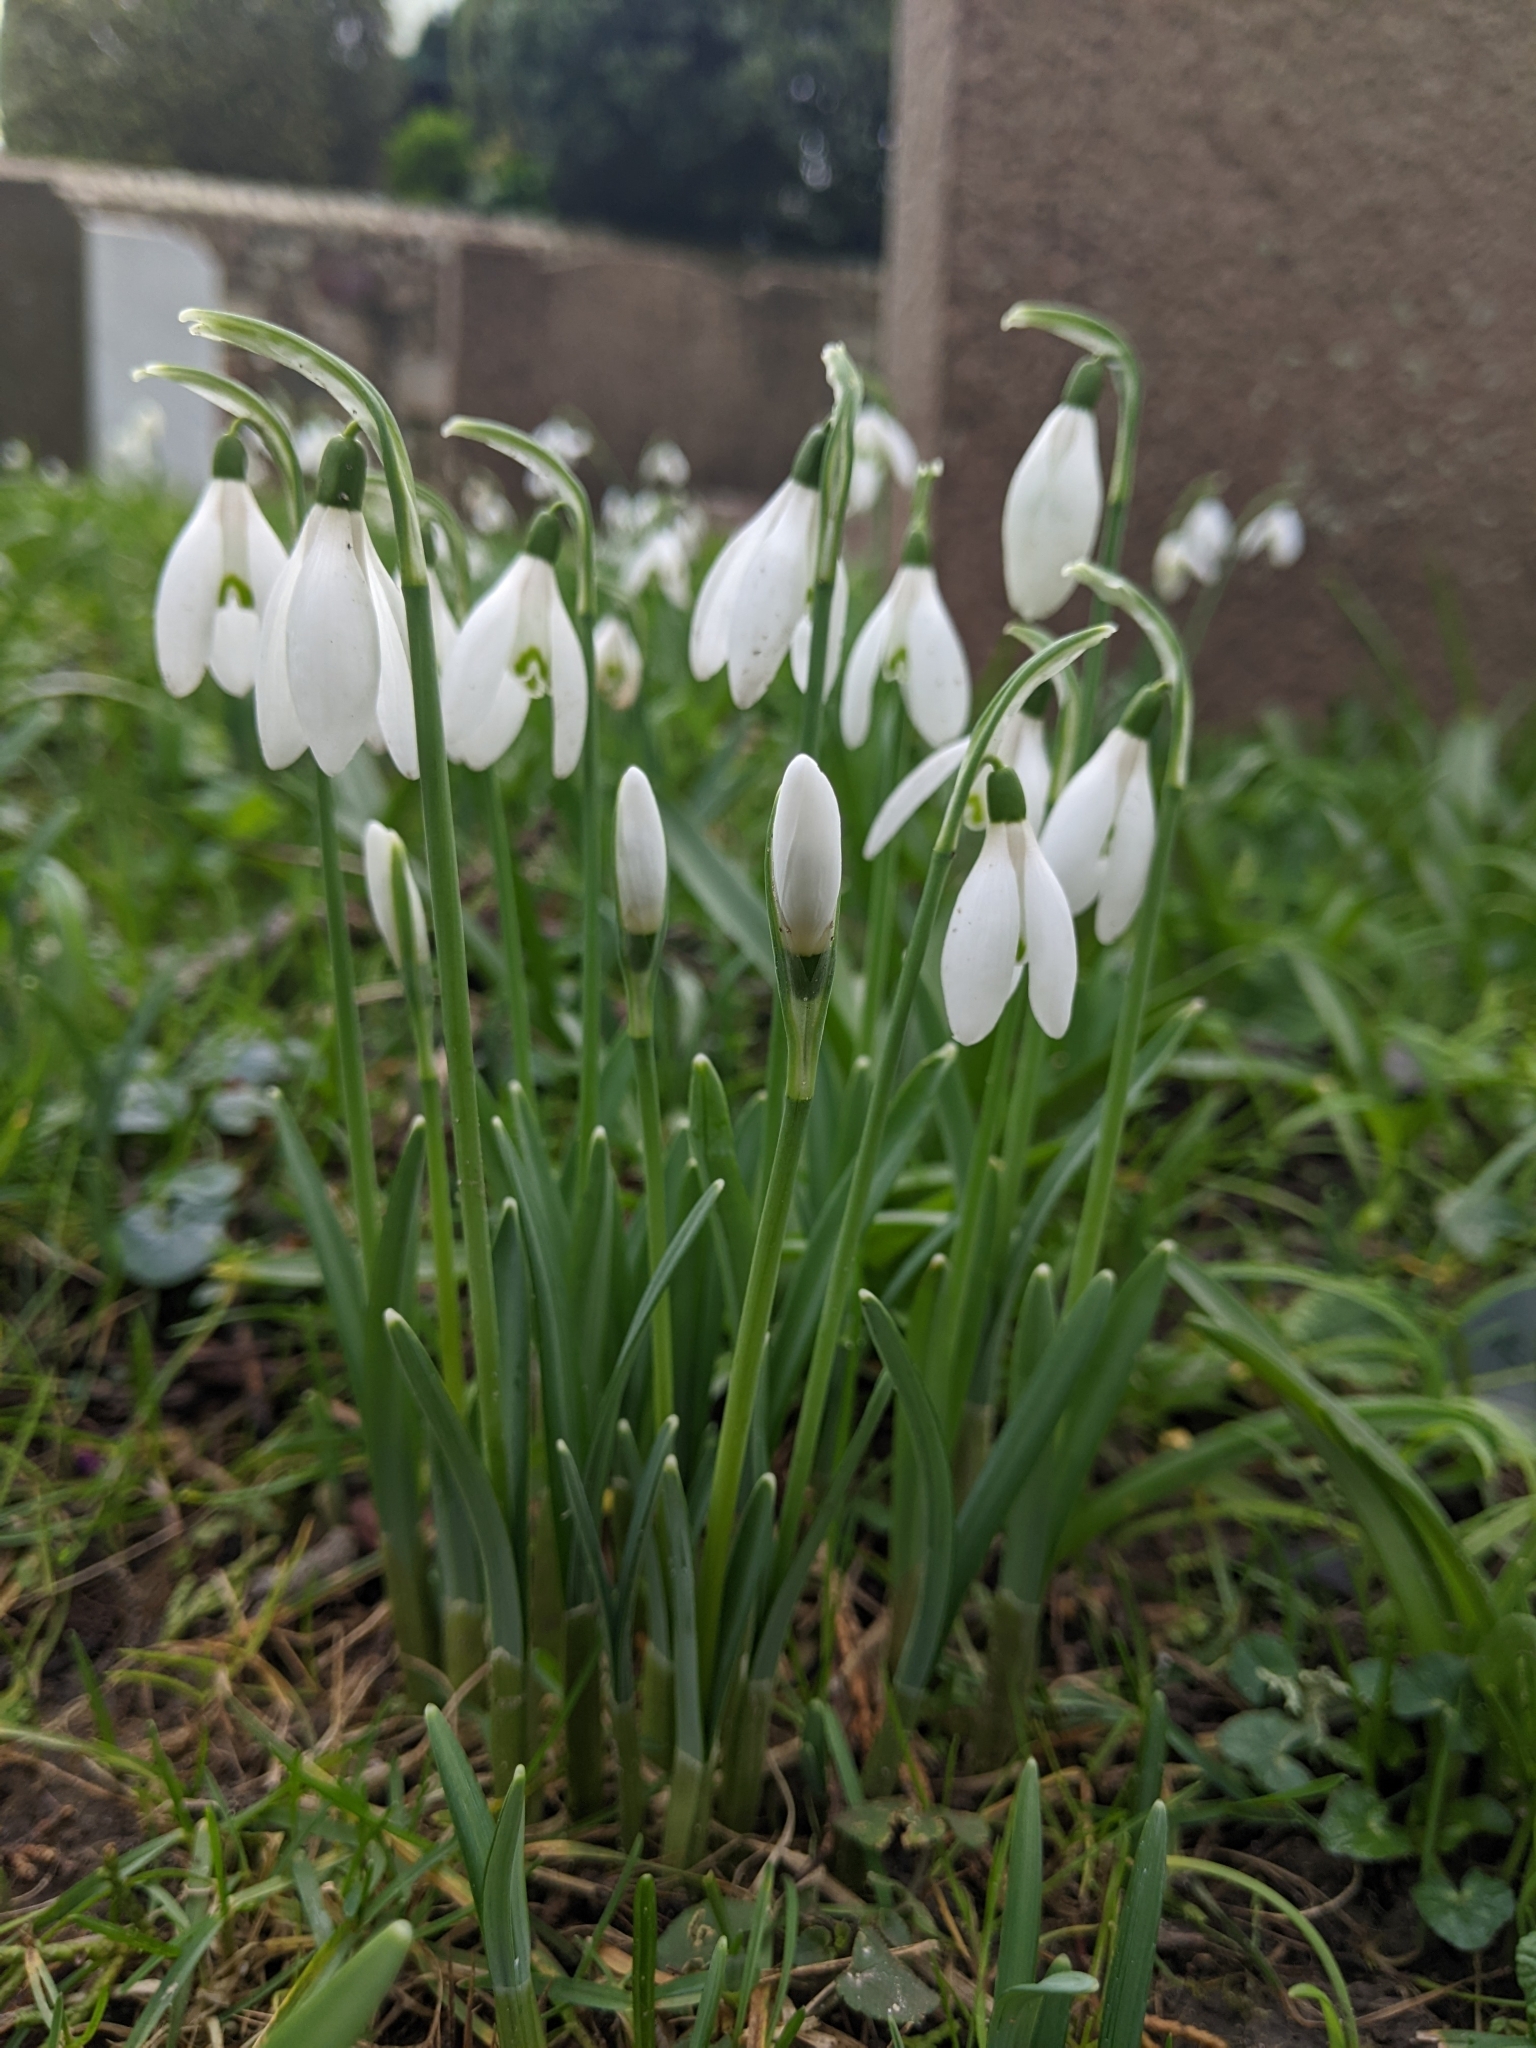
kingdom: Plantae
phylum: Tracheophyta
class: Liliopsida
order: Asparagales
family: Amaryllidaceae
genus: Galanthus
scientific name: Galanthus nivalis
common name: Snowdrop
